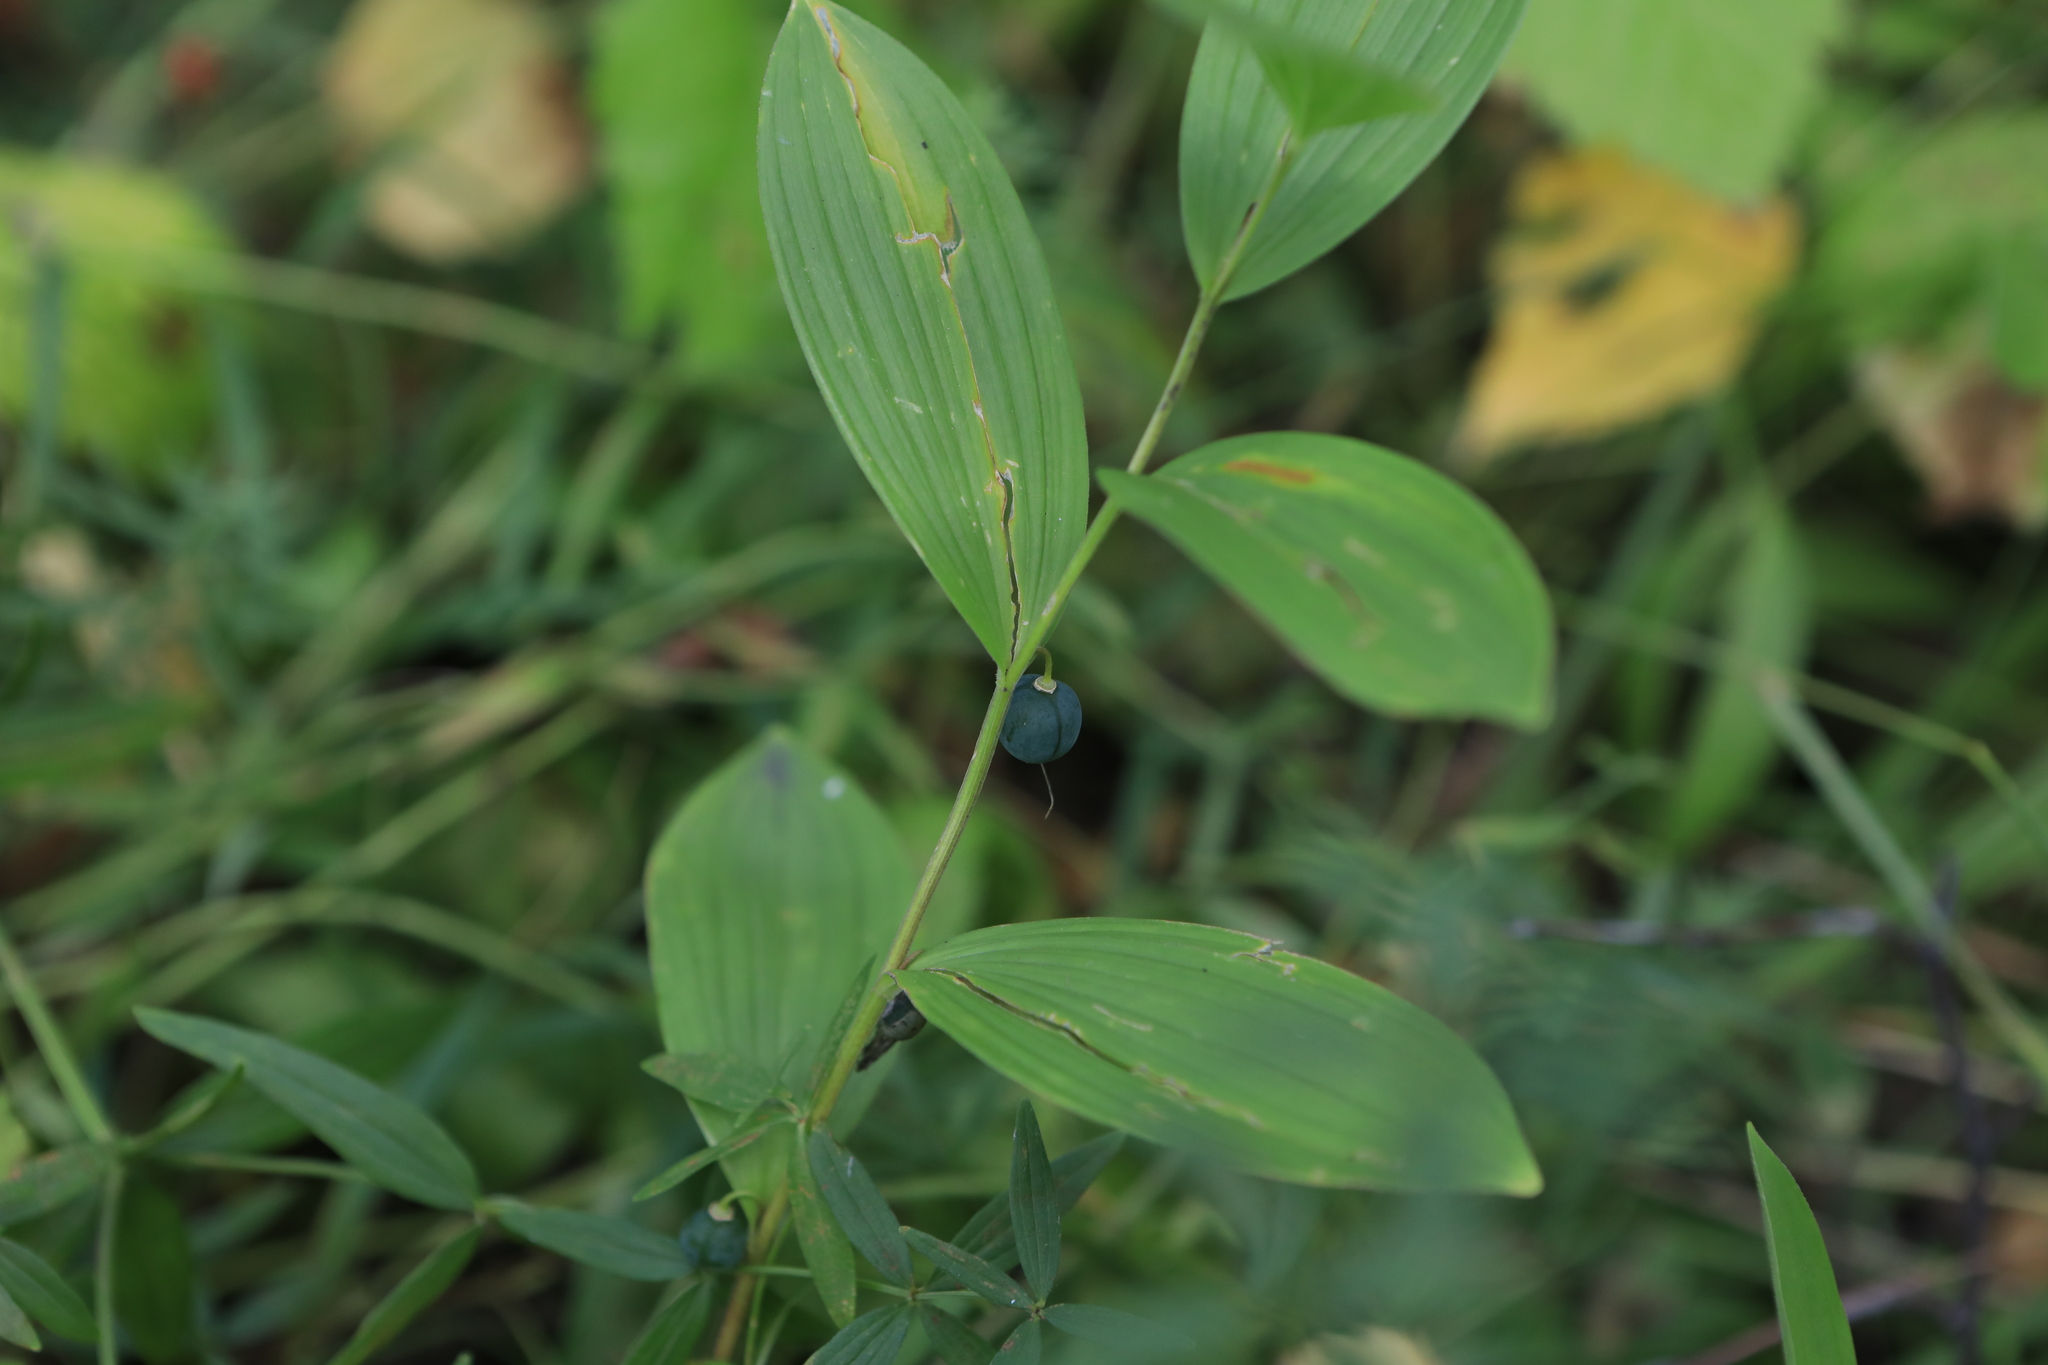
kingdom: Plantae
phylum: Tracheophyta
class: Liliopsida
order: Asparagales
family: Asparagaceae
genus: Polygonatum
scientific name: Polygonatum humile
